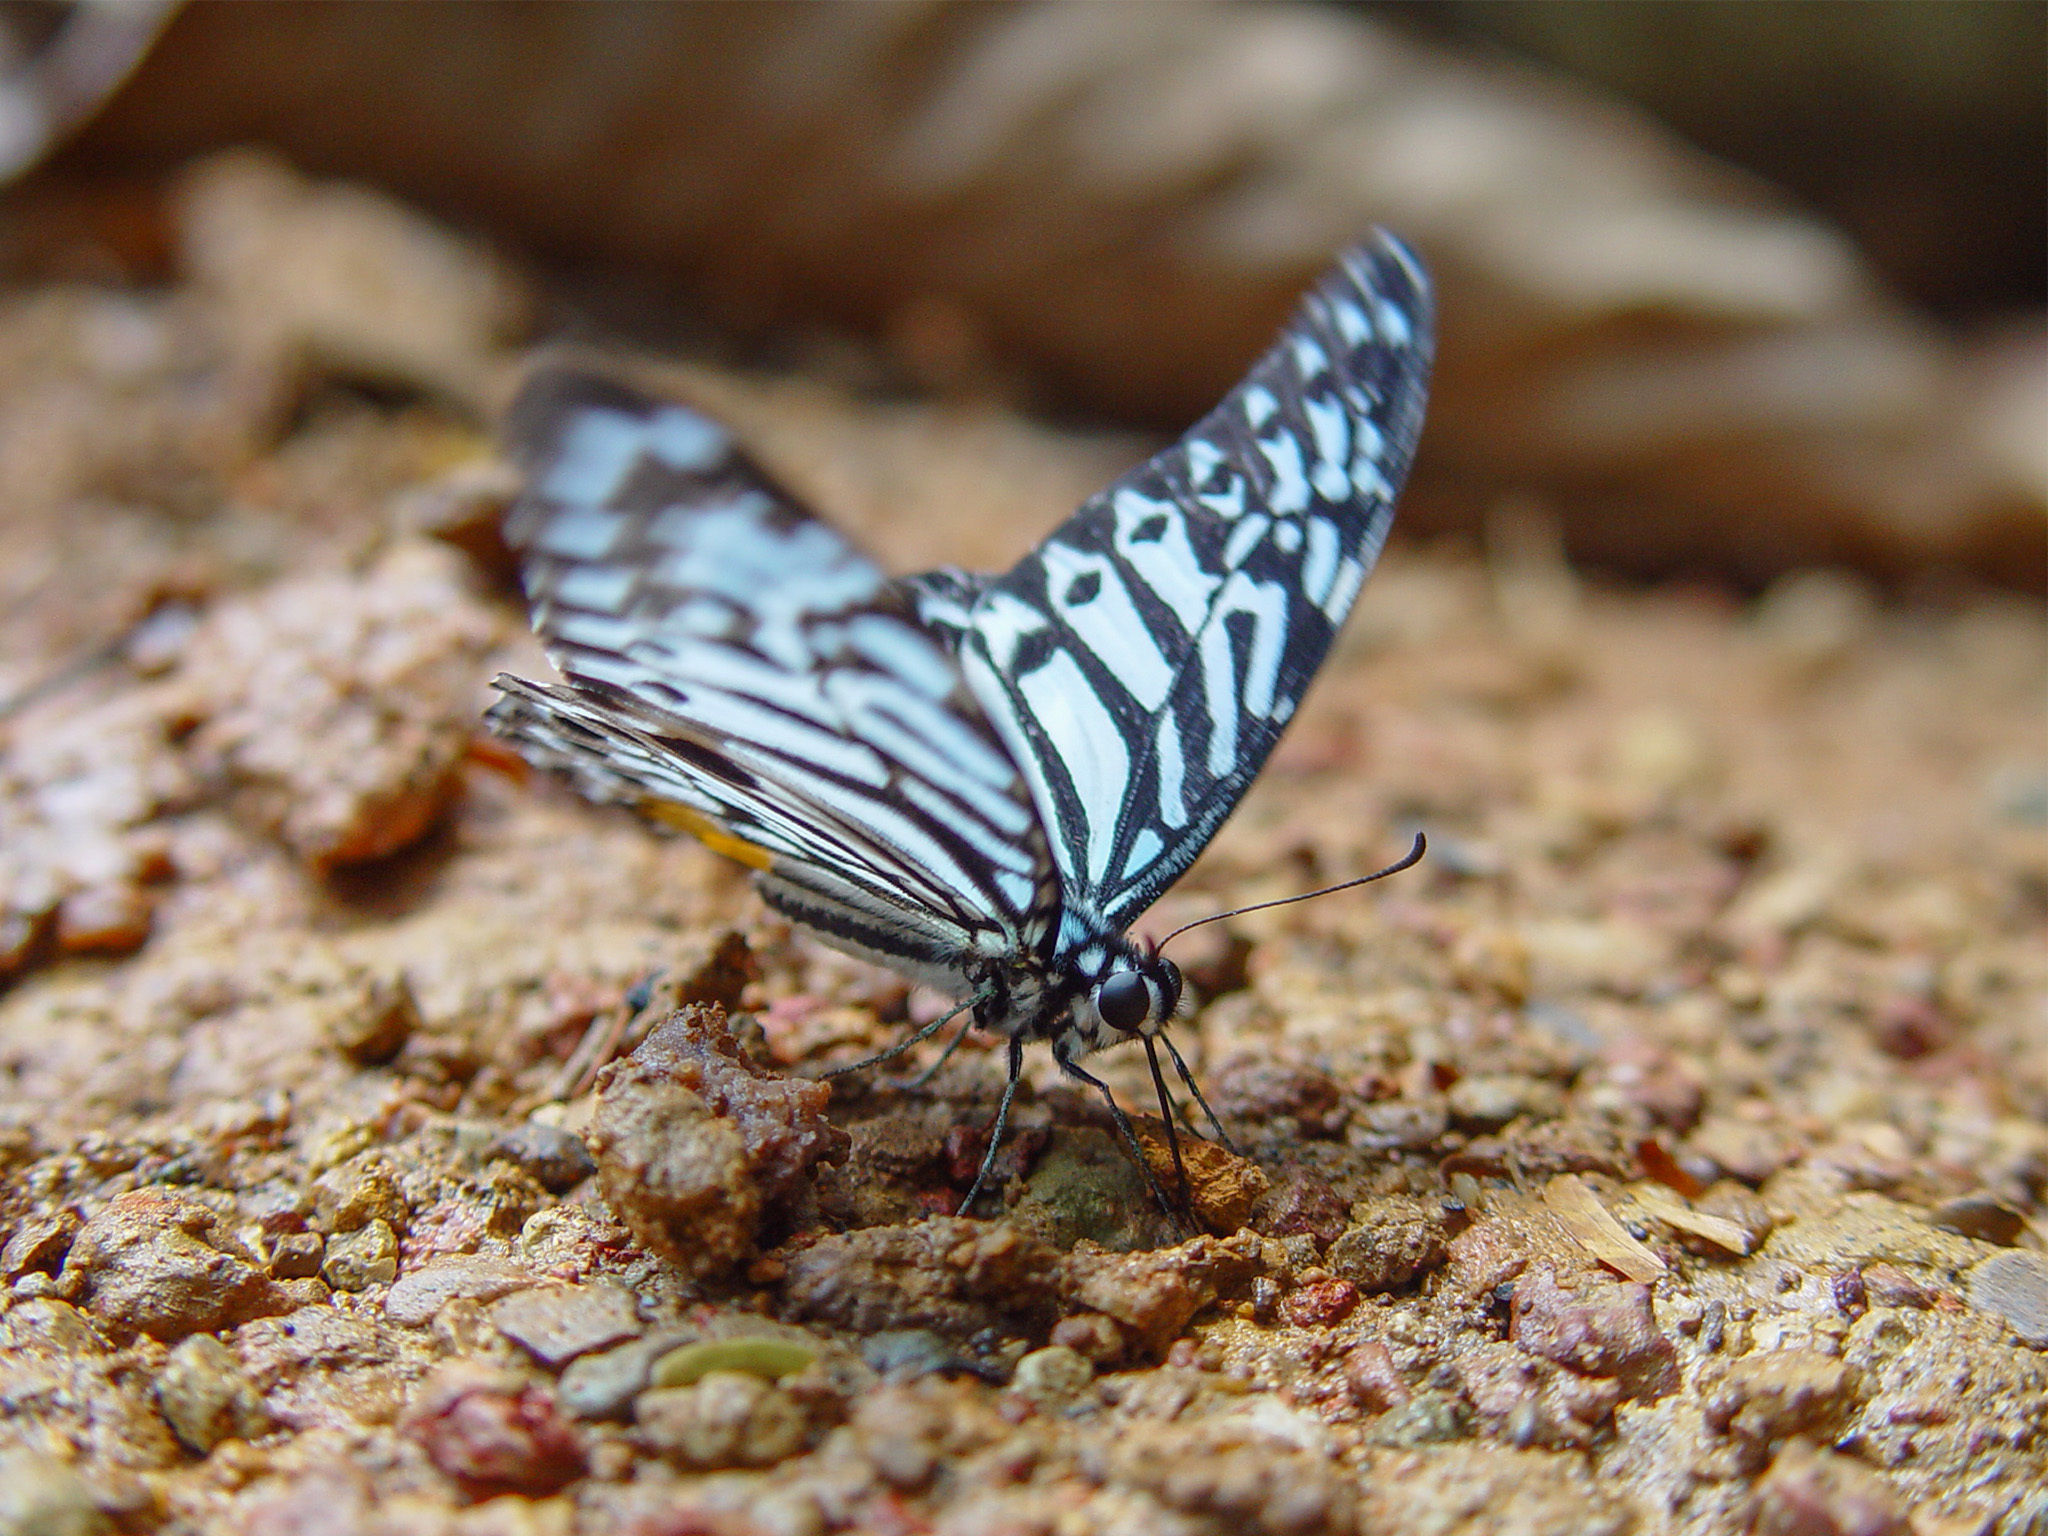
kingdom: Animalia
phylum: Arthropoda
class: Insecta
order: Lepidoptera
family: Papilionidae
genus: Graphium
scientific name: Graphium delesserti
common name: Malayan zebra
